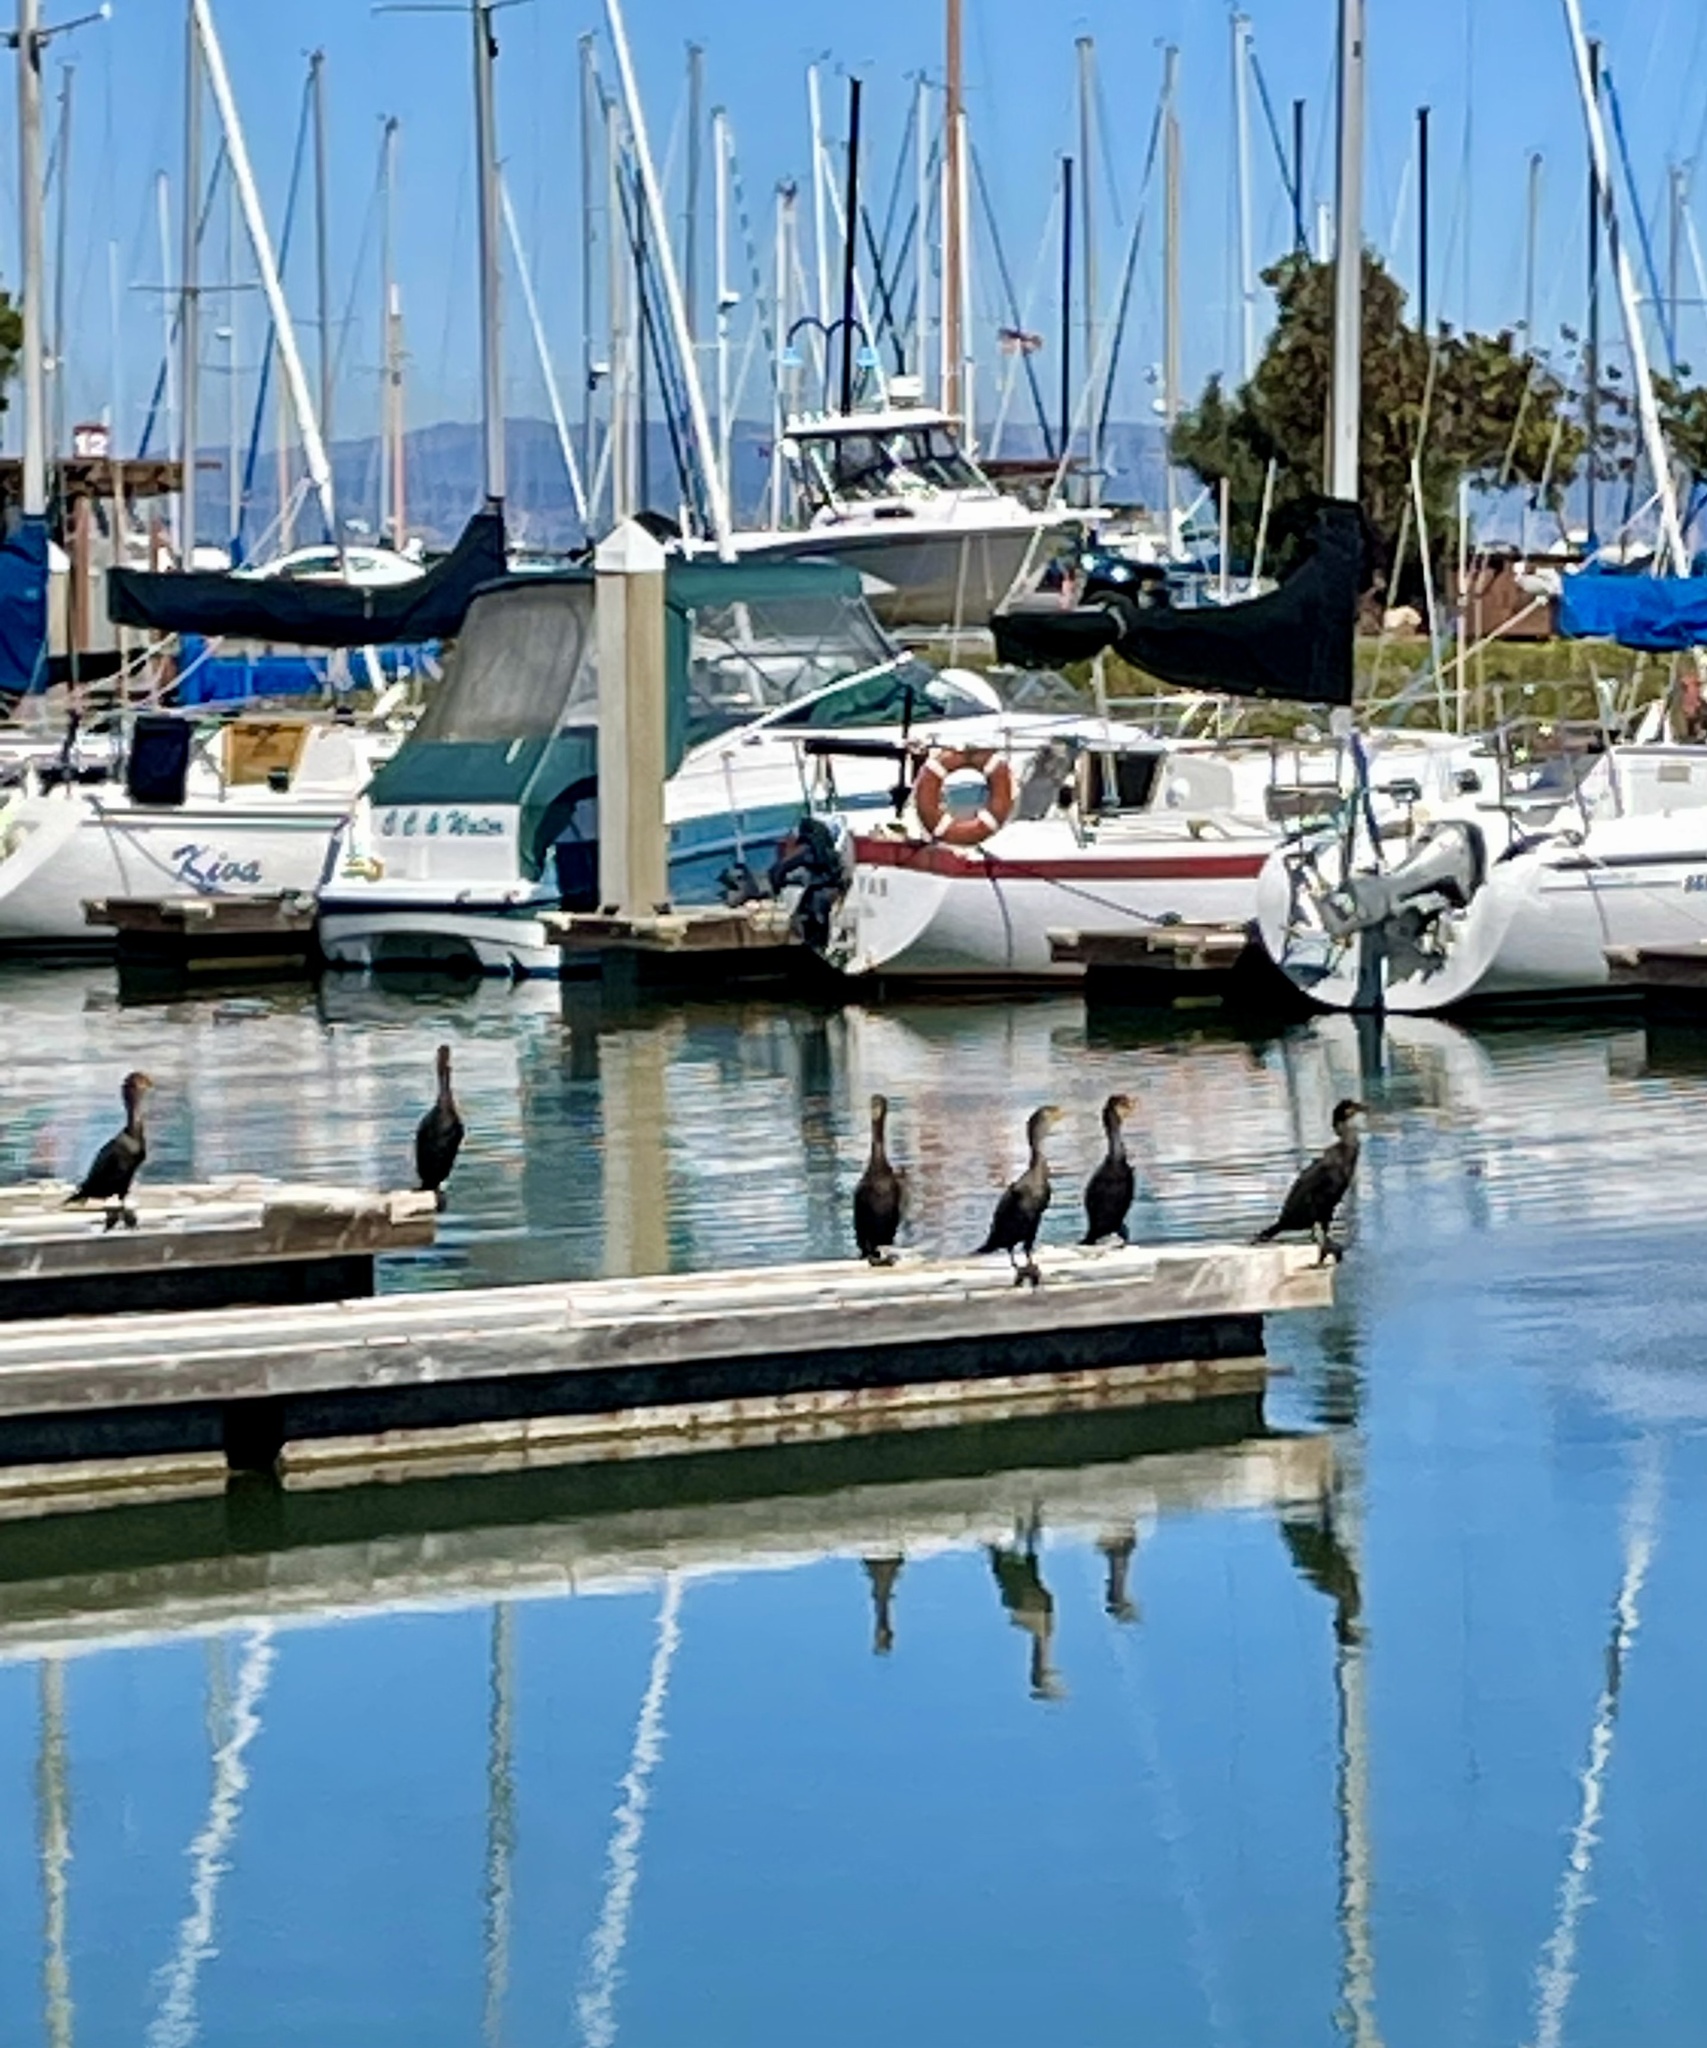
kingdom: Animalia
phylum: Chordata
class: Aves
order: Suliformes
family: Phalacrocoracidae
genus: Phalacrocorax
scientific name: Phalacrocorax auritus
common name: Double-crested cormorant
